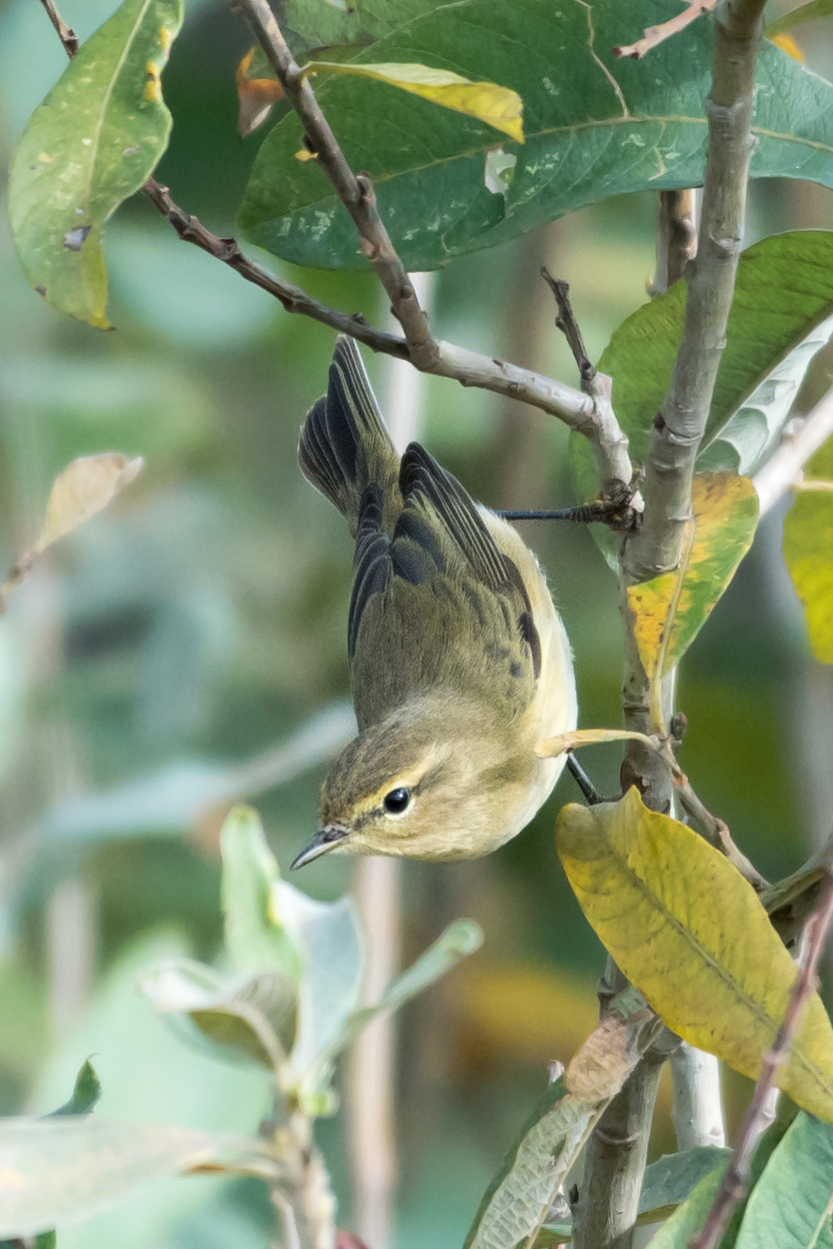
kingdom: Animalia
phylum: Chordata
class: Aves
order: Passeriformes
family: Phylloscopidae
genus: Phylloscopus
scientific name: Phylloscopus collybita
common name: Common chiffchaff
